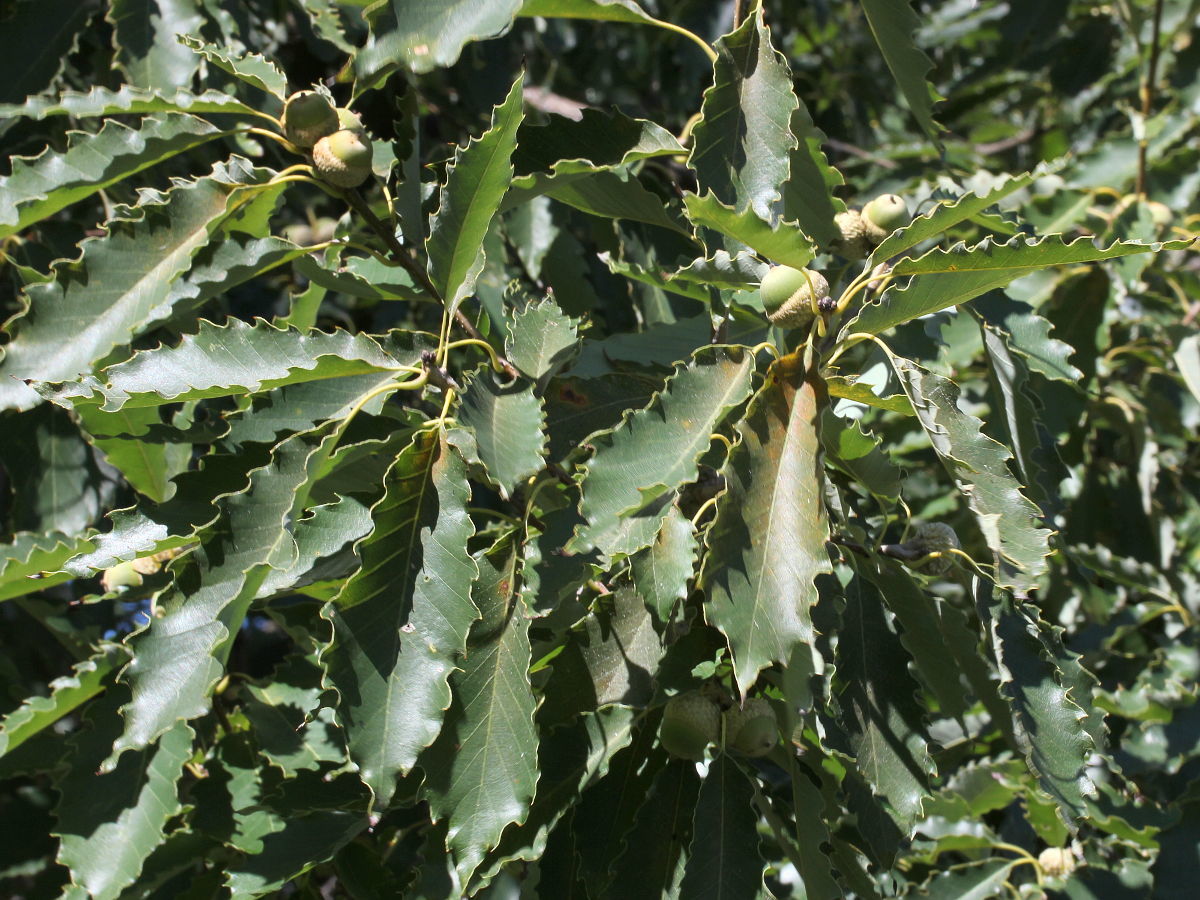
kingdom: Plantae
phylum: Tracheophyta
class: Magnoliopsida
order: Fagales
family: Fagaceae
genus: Quercus
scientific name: Quercus muehlenbergii
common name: Chinkapin oak
